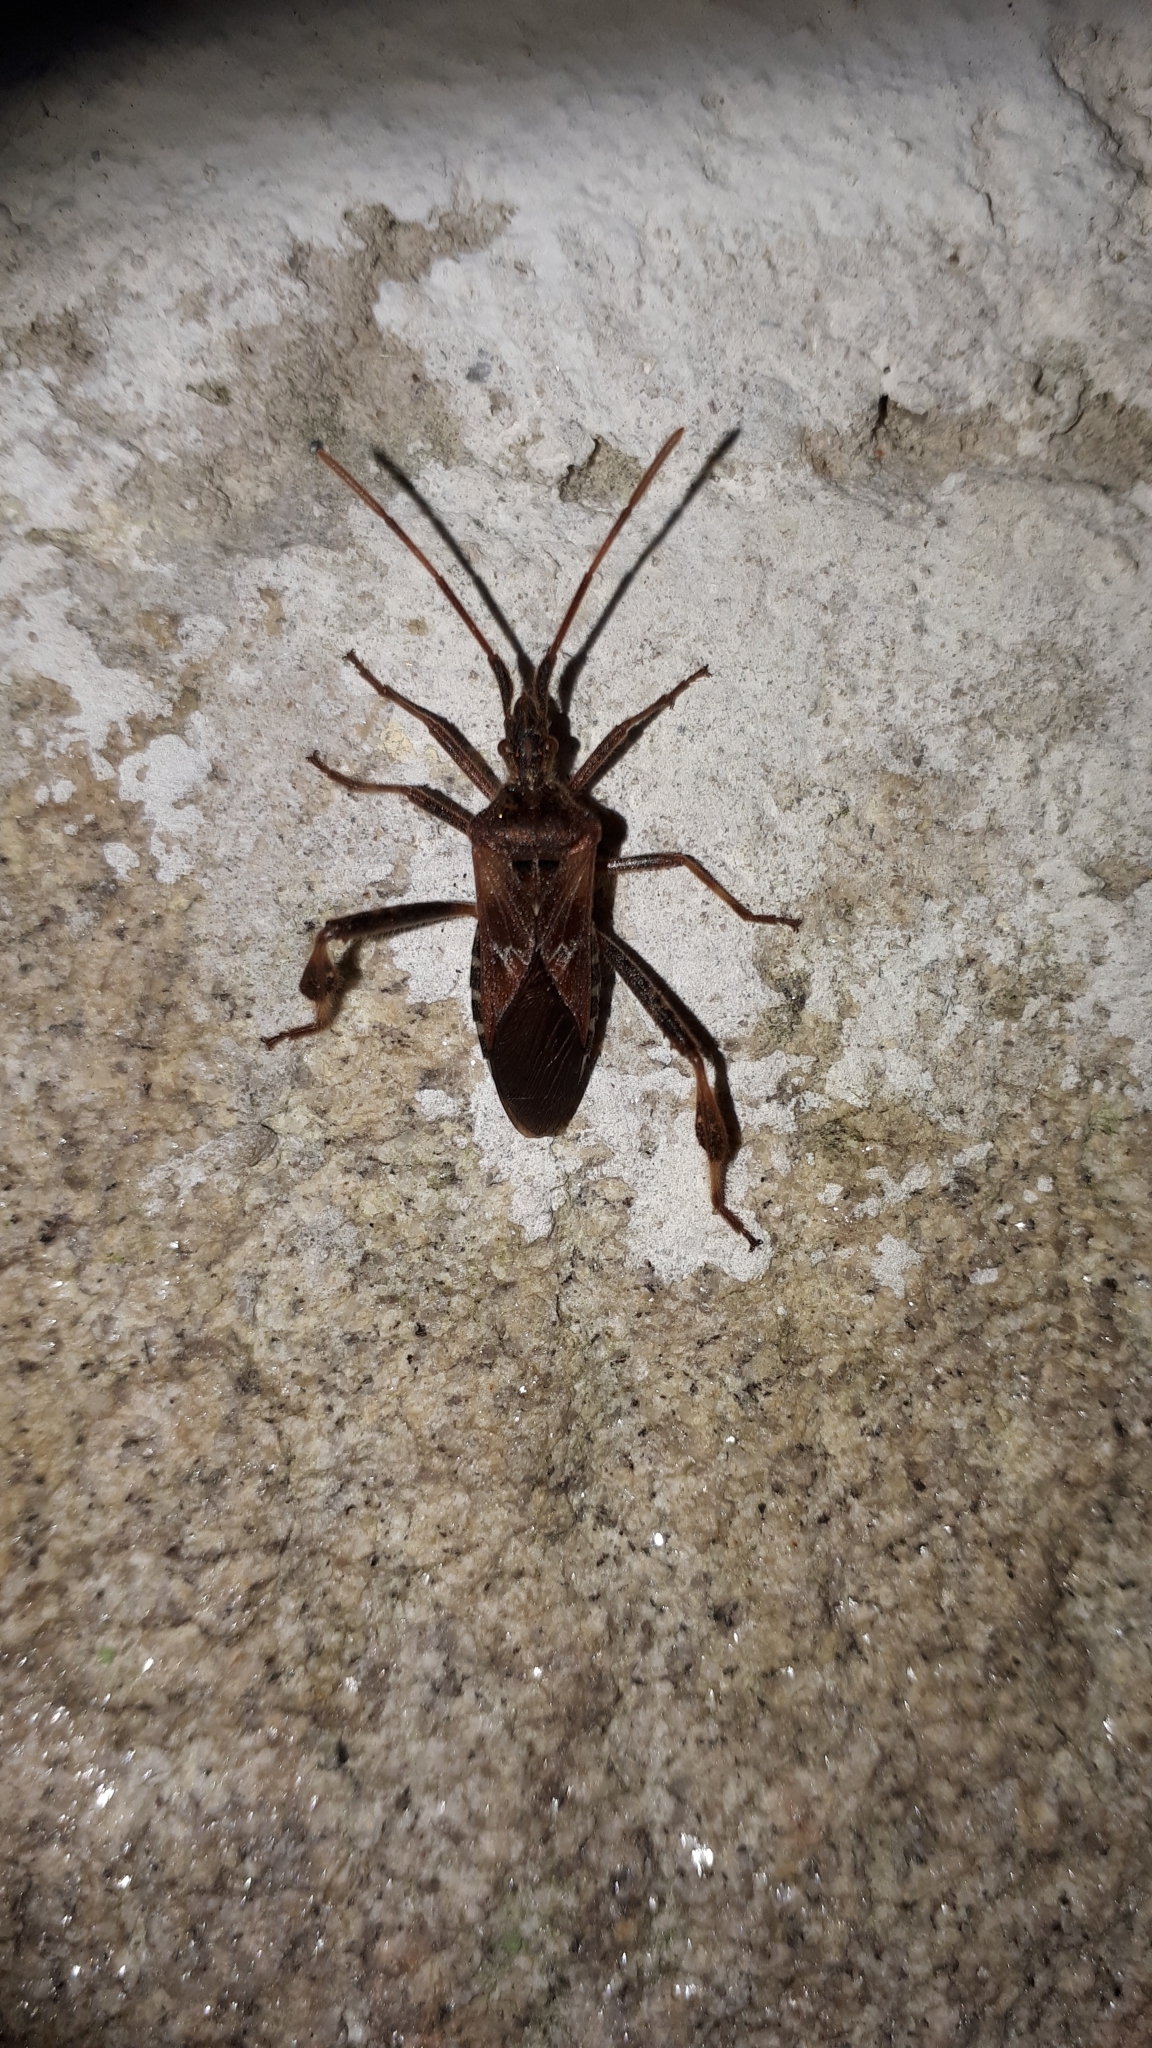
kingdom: Animalia
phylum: Arthropoda
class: Insecta
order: Hemiptera
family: Coreidae
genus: Leptoglossus
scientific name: Leptoglossus occidentalis
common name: Western conifer-seed bug
